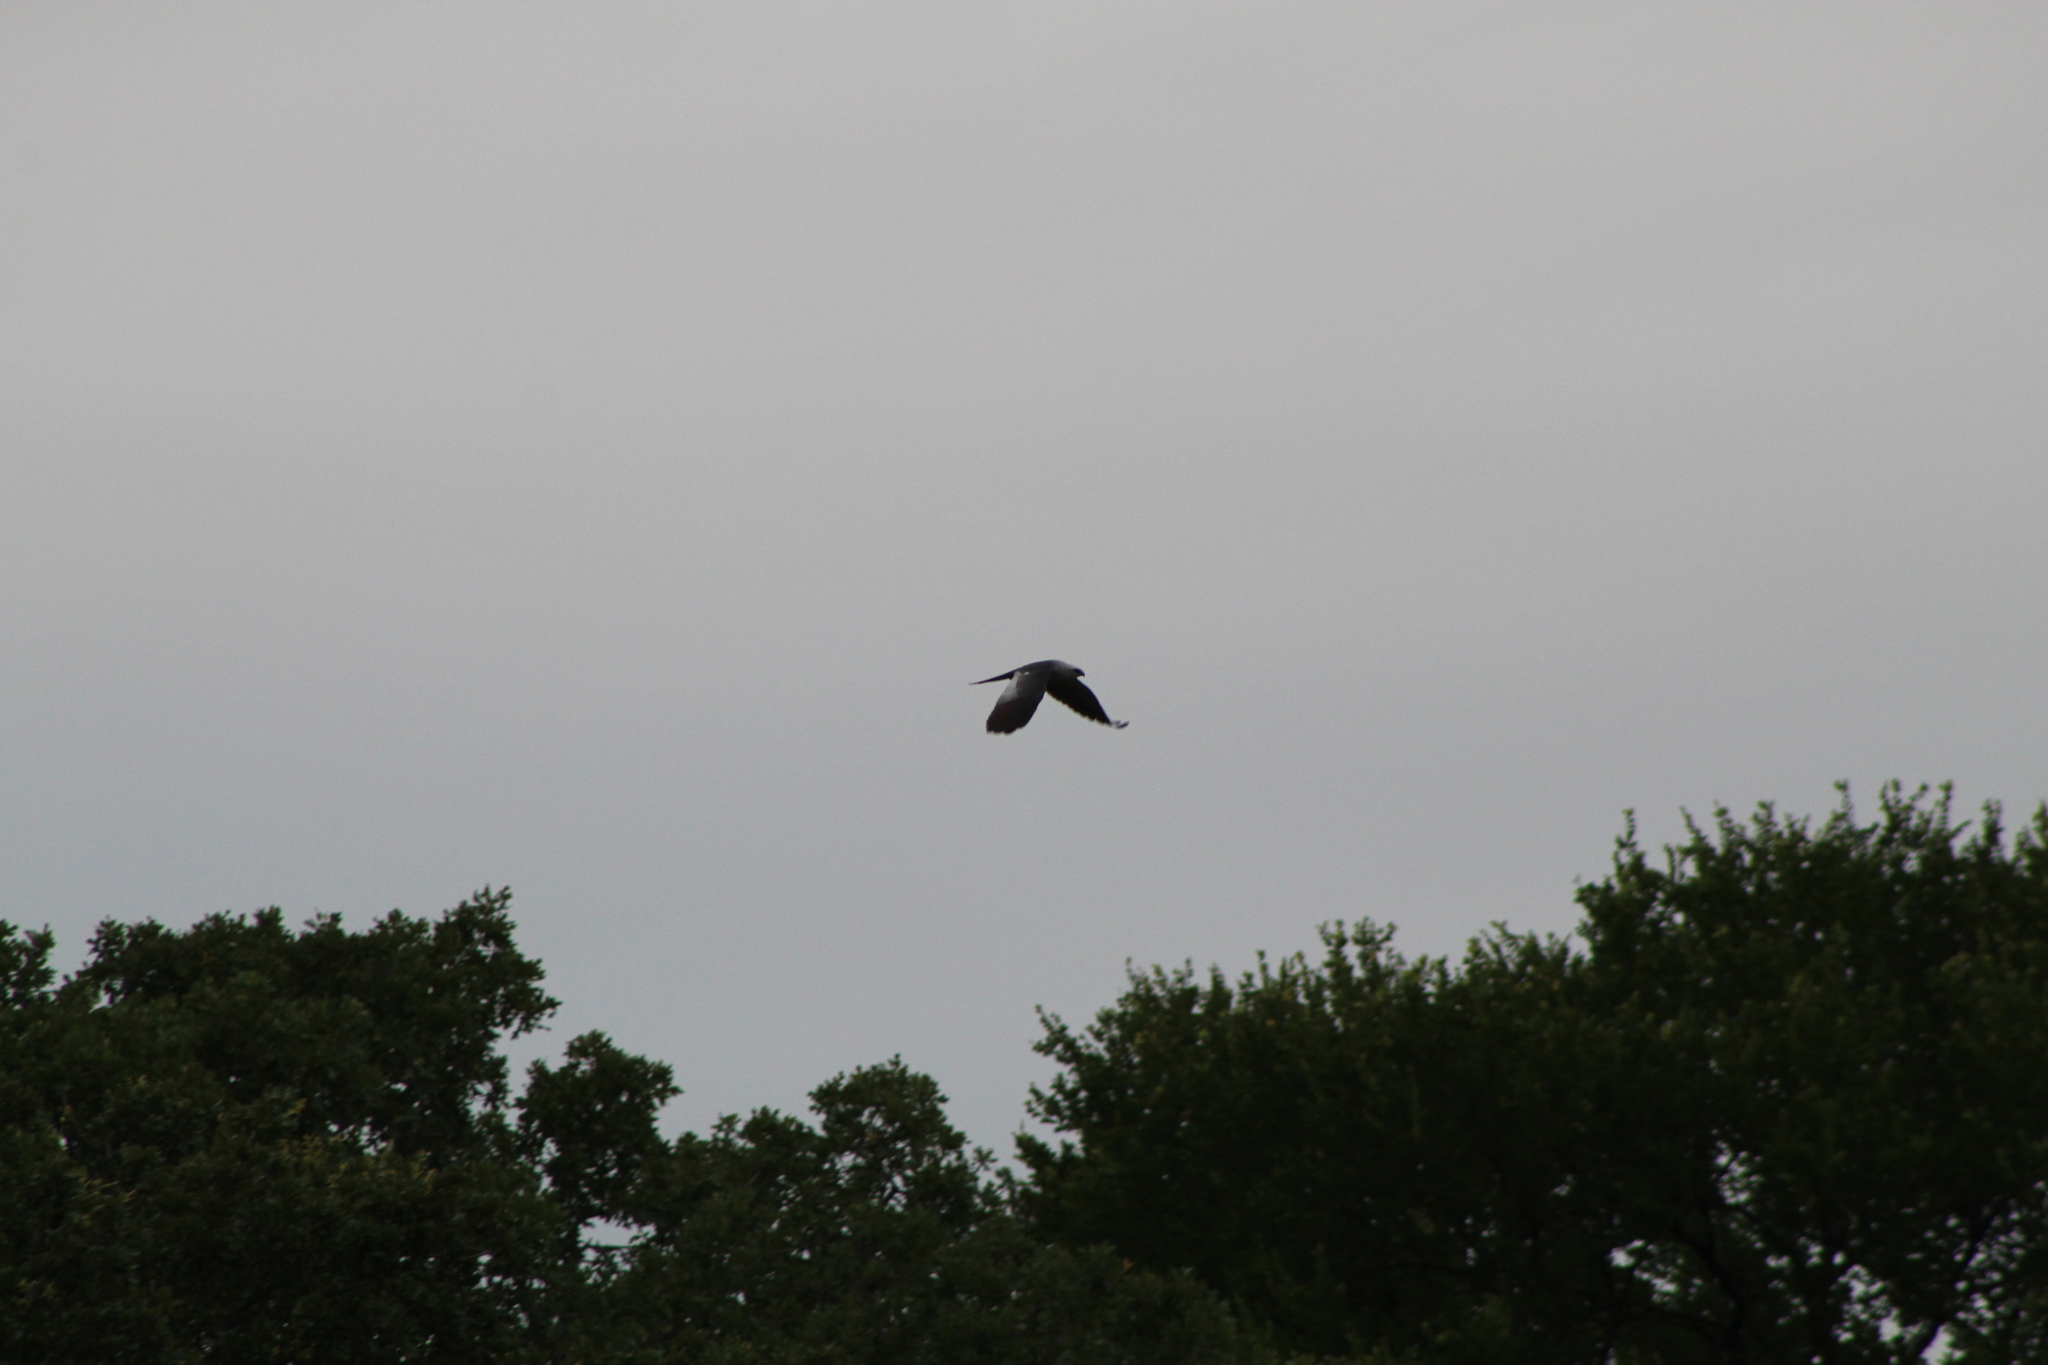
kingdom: Animalia
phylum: Chordata
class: Aves
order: Accipitriformes
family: Accipitridae
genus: Ictinia
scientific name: Ictinia mississippiensis
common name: Mississippi kite
